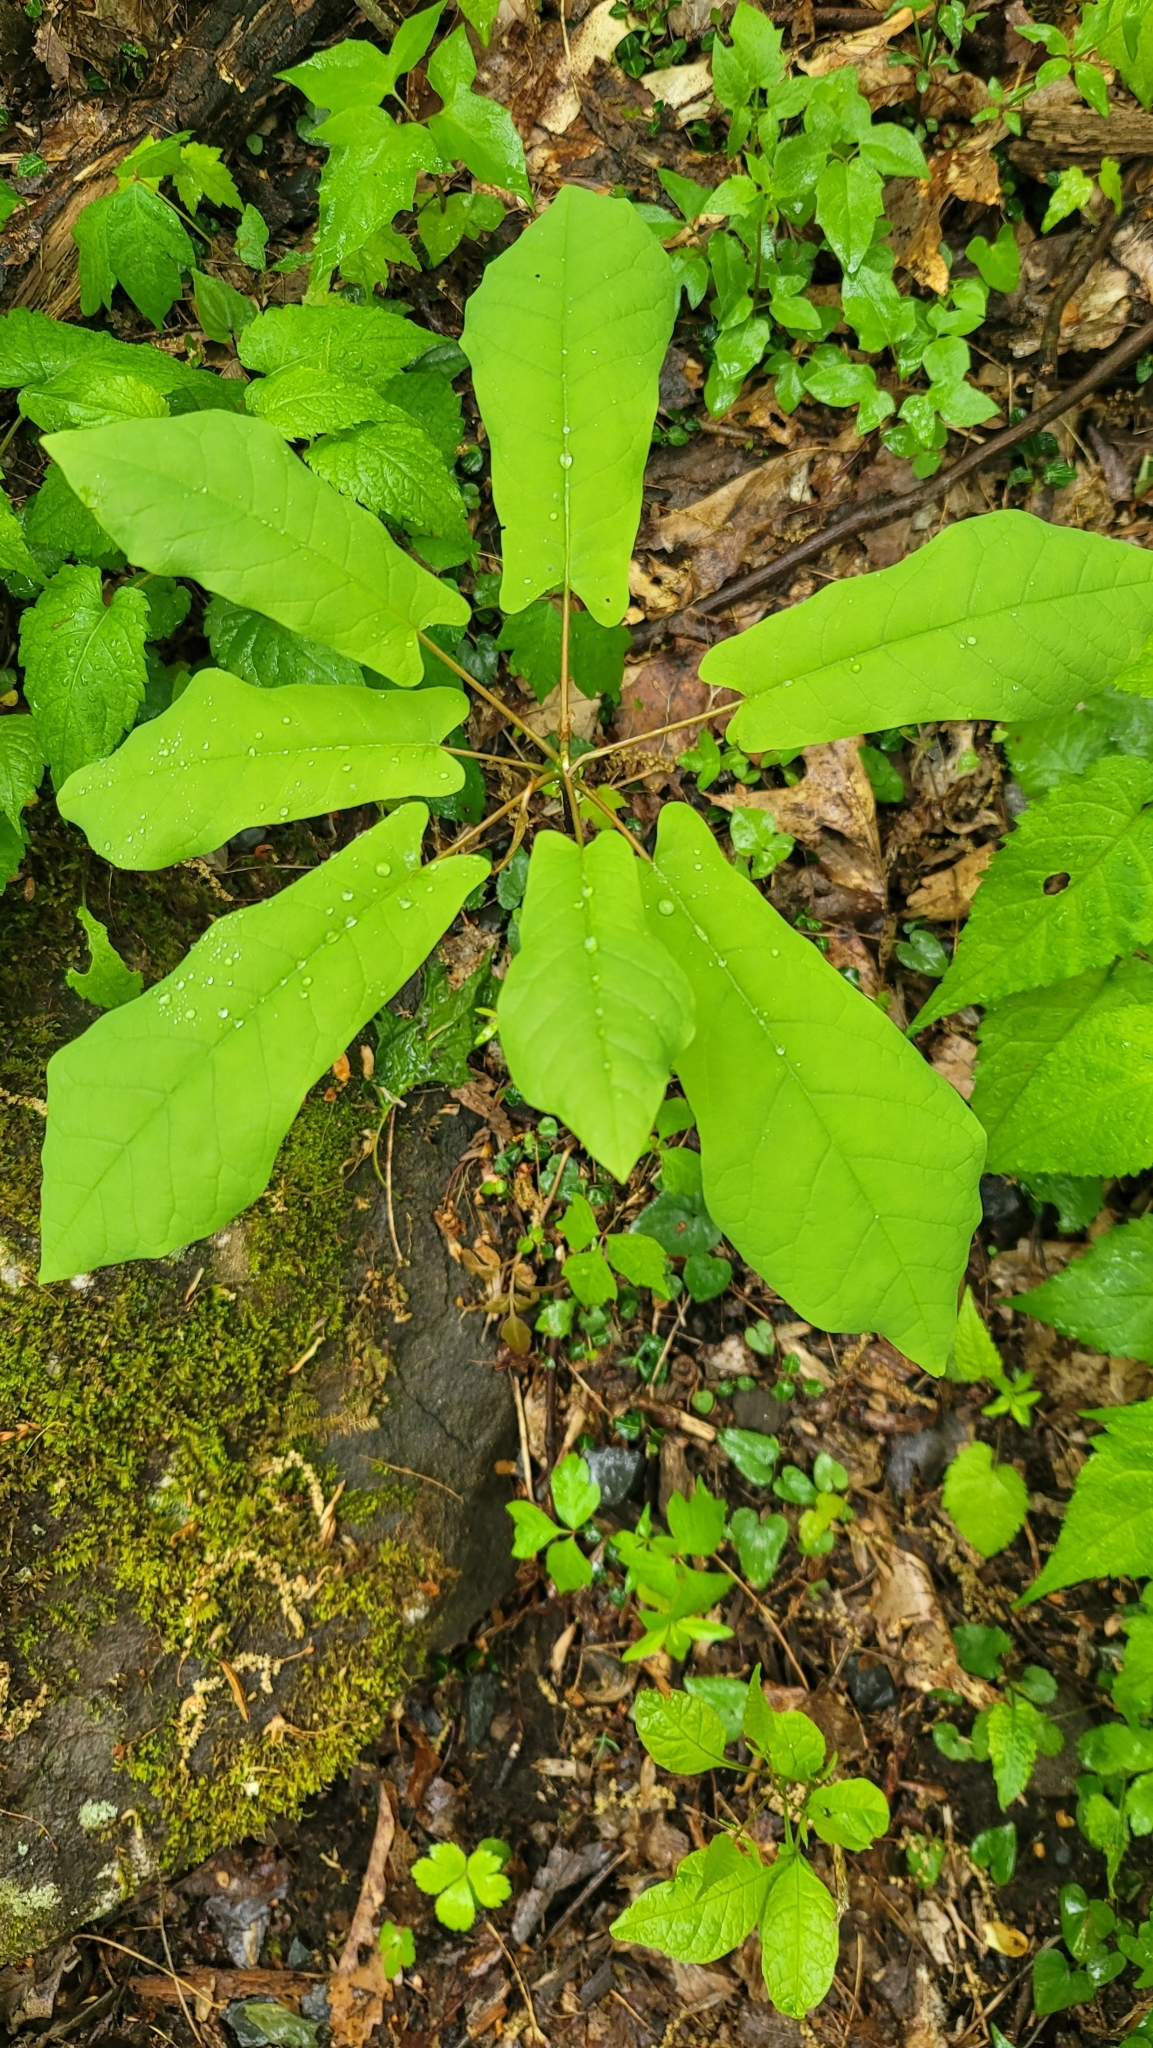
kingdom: Plantae
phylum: Tracheophyta
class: Magnoliopsida
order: Magnoliales
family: Magnoliaceae
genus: Magnolia
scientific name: Magnolia fraseri
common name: Fraser's magnolia
